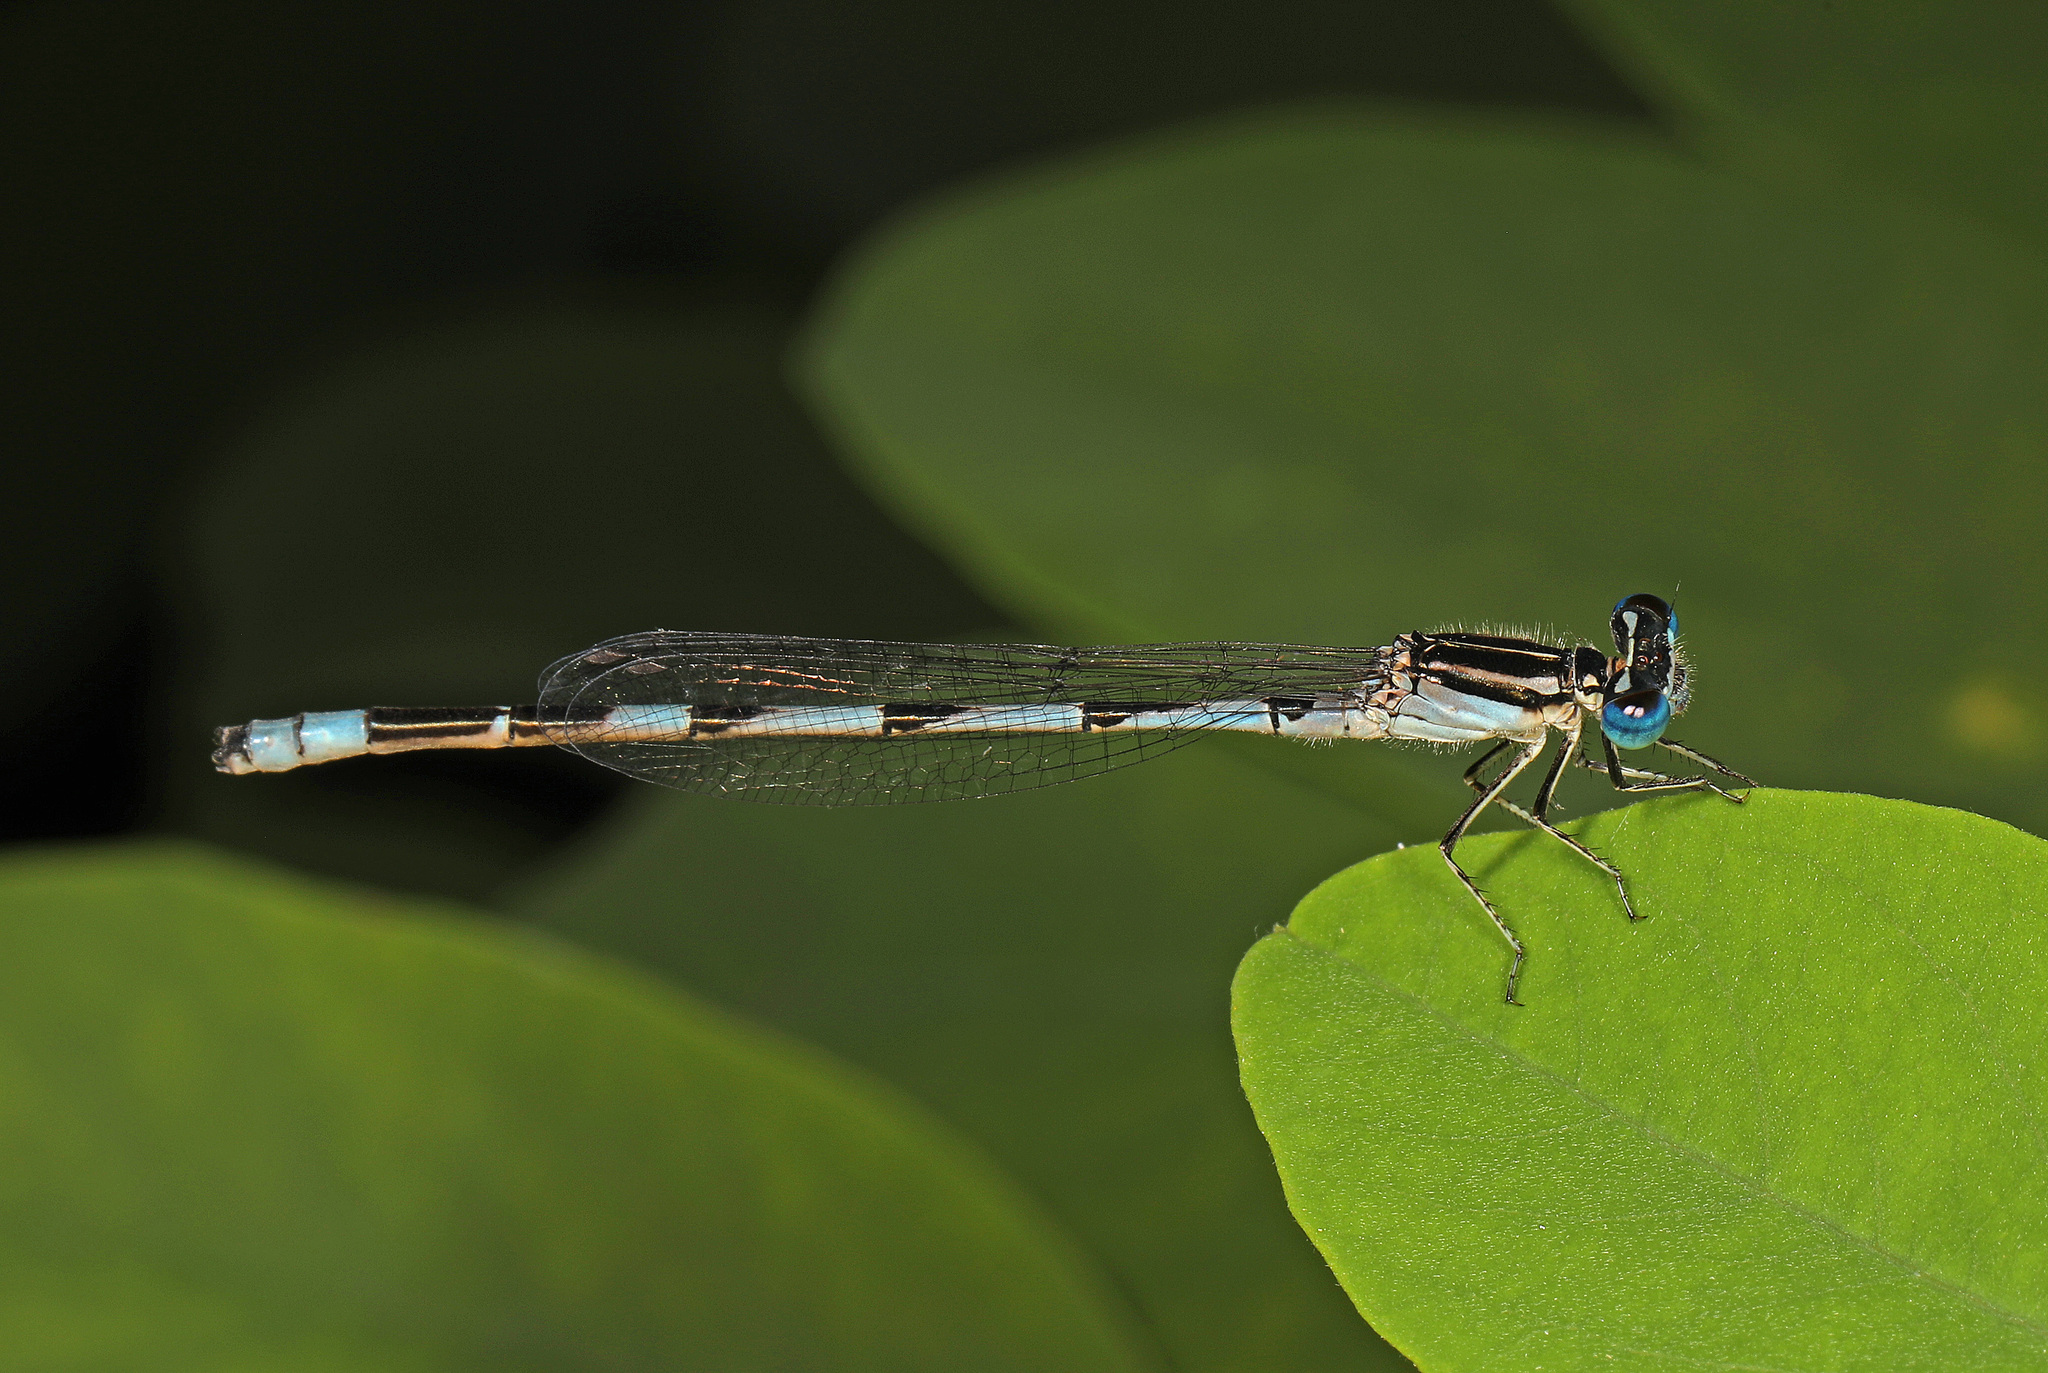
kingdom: Animalia
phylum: Arthropoda
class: Insecta
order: Odonata
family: Coenagrionidae
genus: Enallagma
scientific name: Enallagma durum
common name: Big bluet
